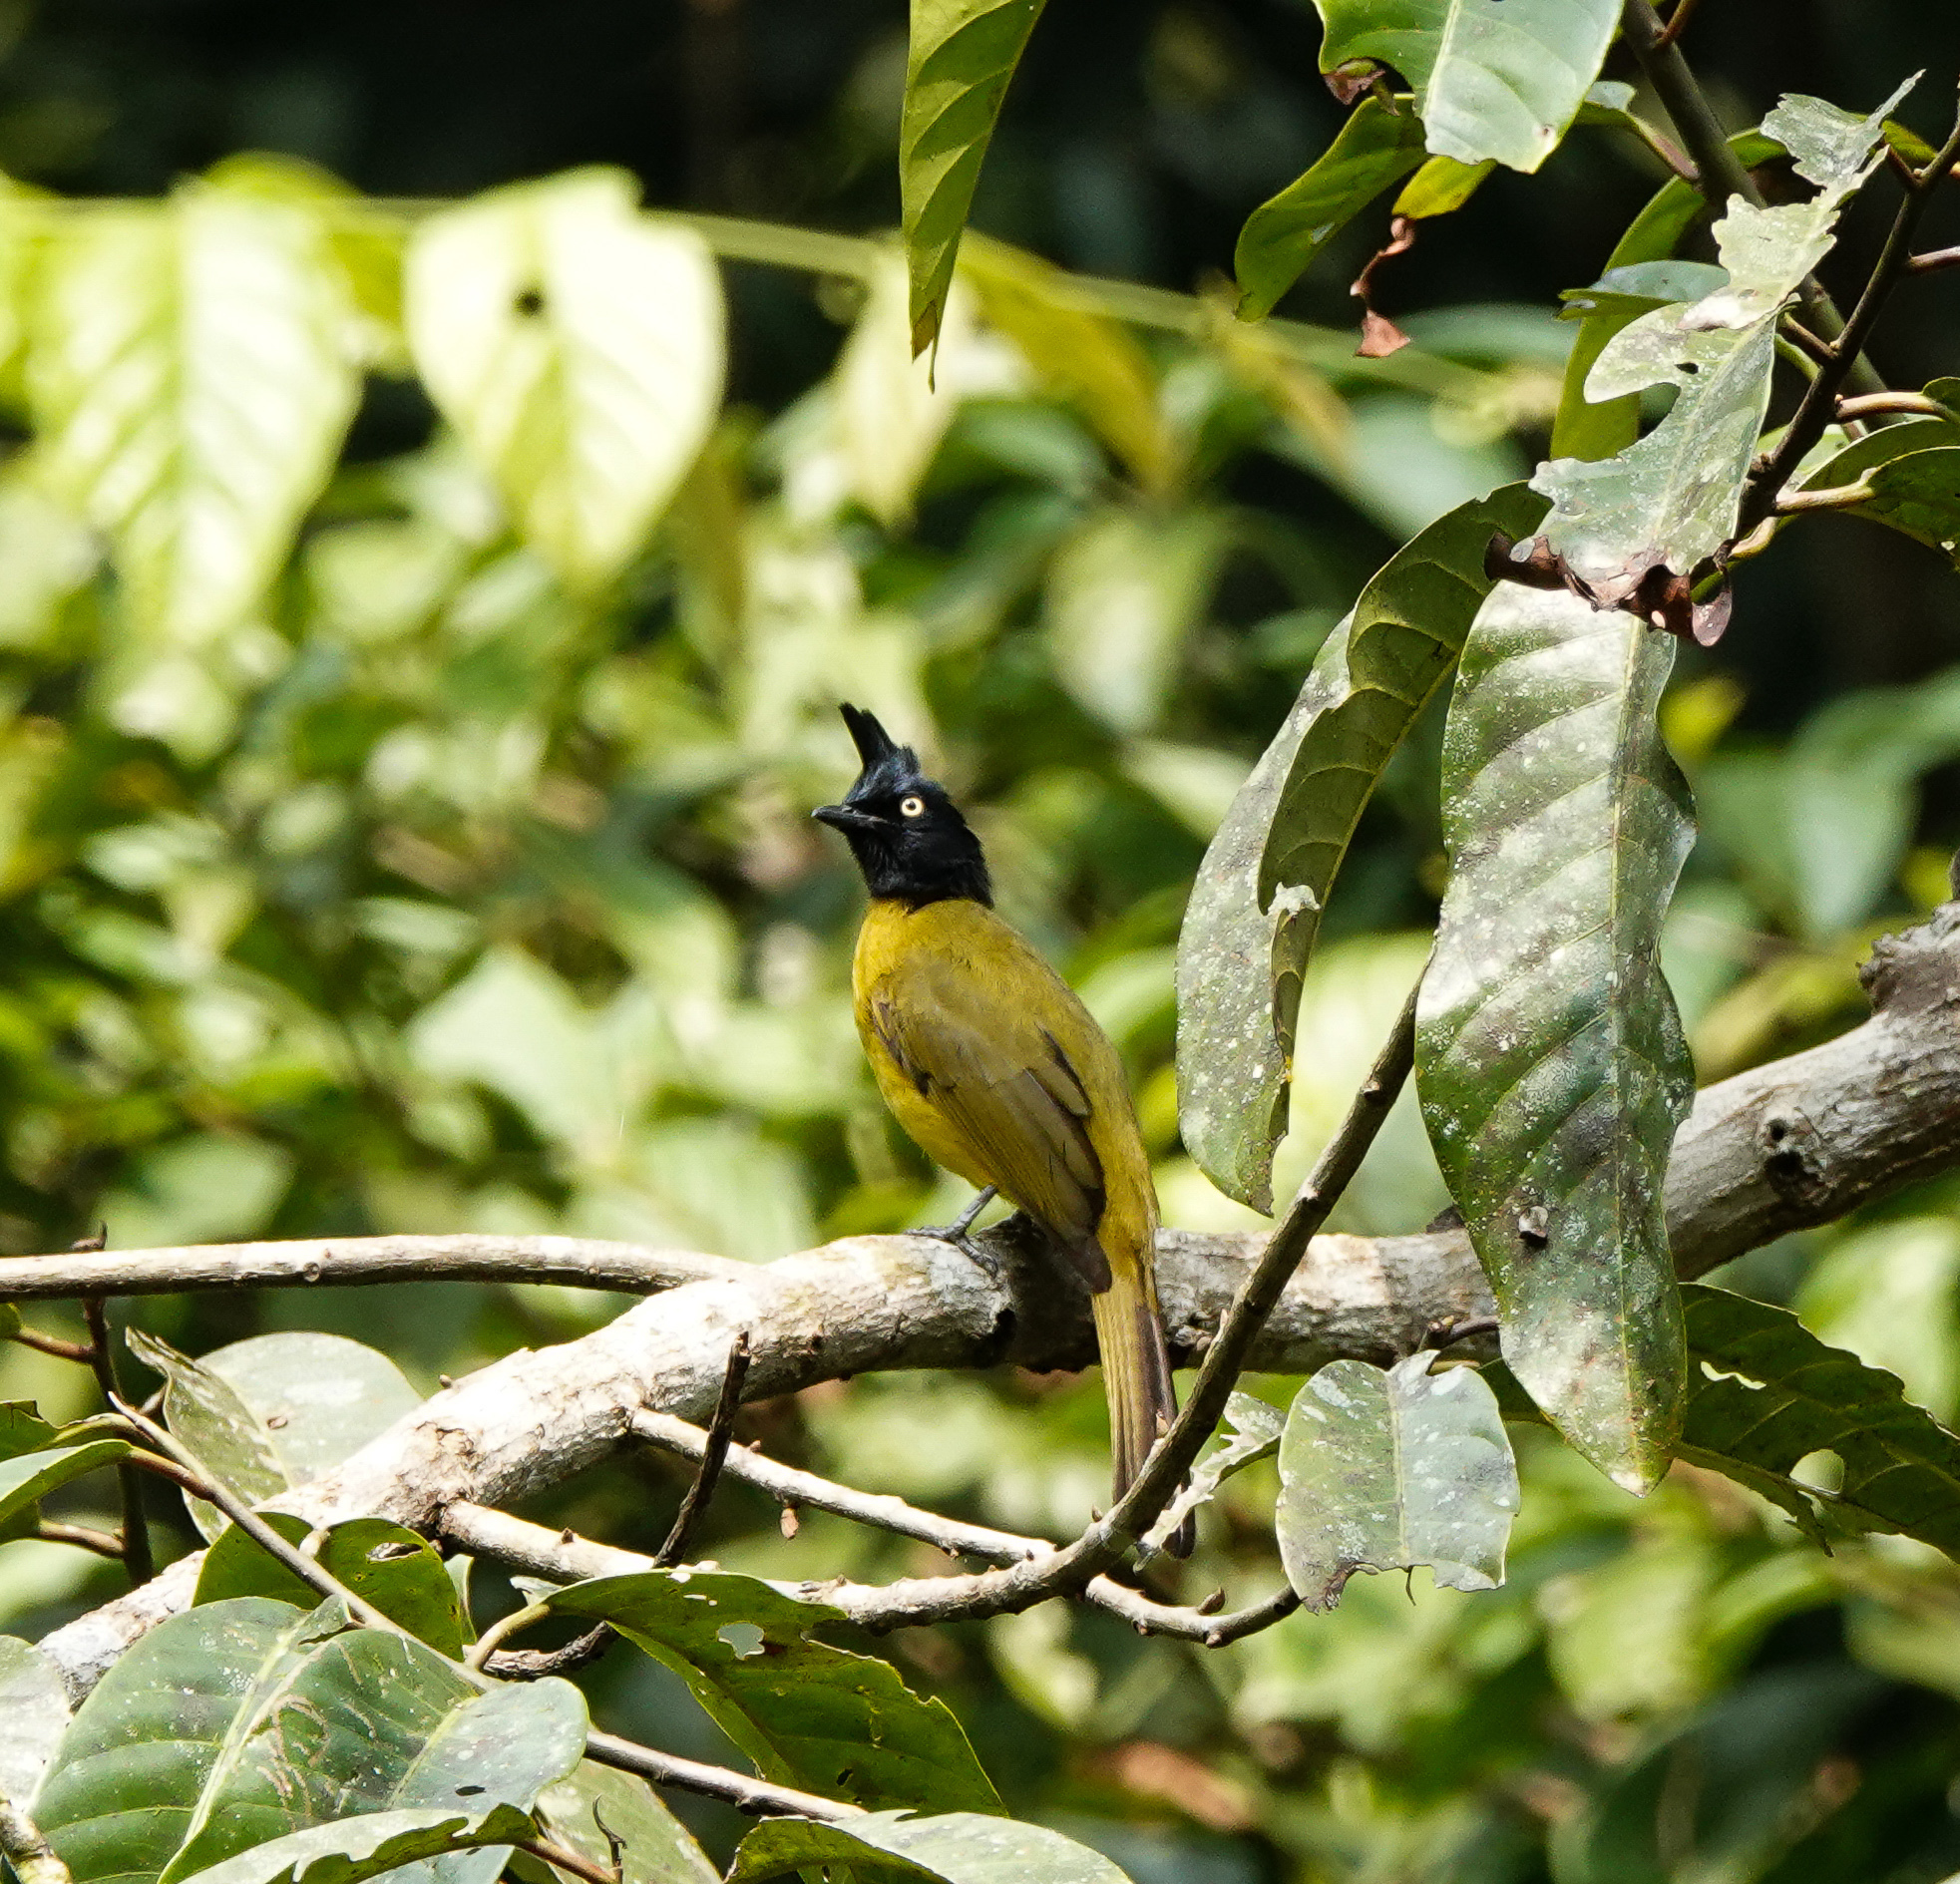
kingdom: Animalia
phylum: Chordata
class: Aves
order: Passeriformes
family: Pycnonotidae
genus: Pycnonotus
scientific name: Pycnonotus flaviventris
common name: Black-crested bulbul
